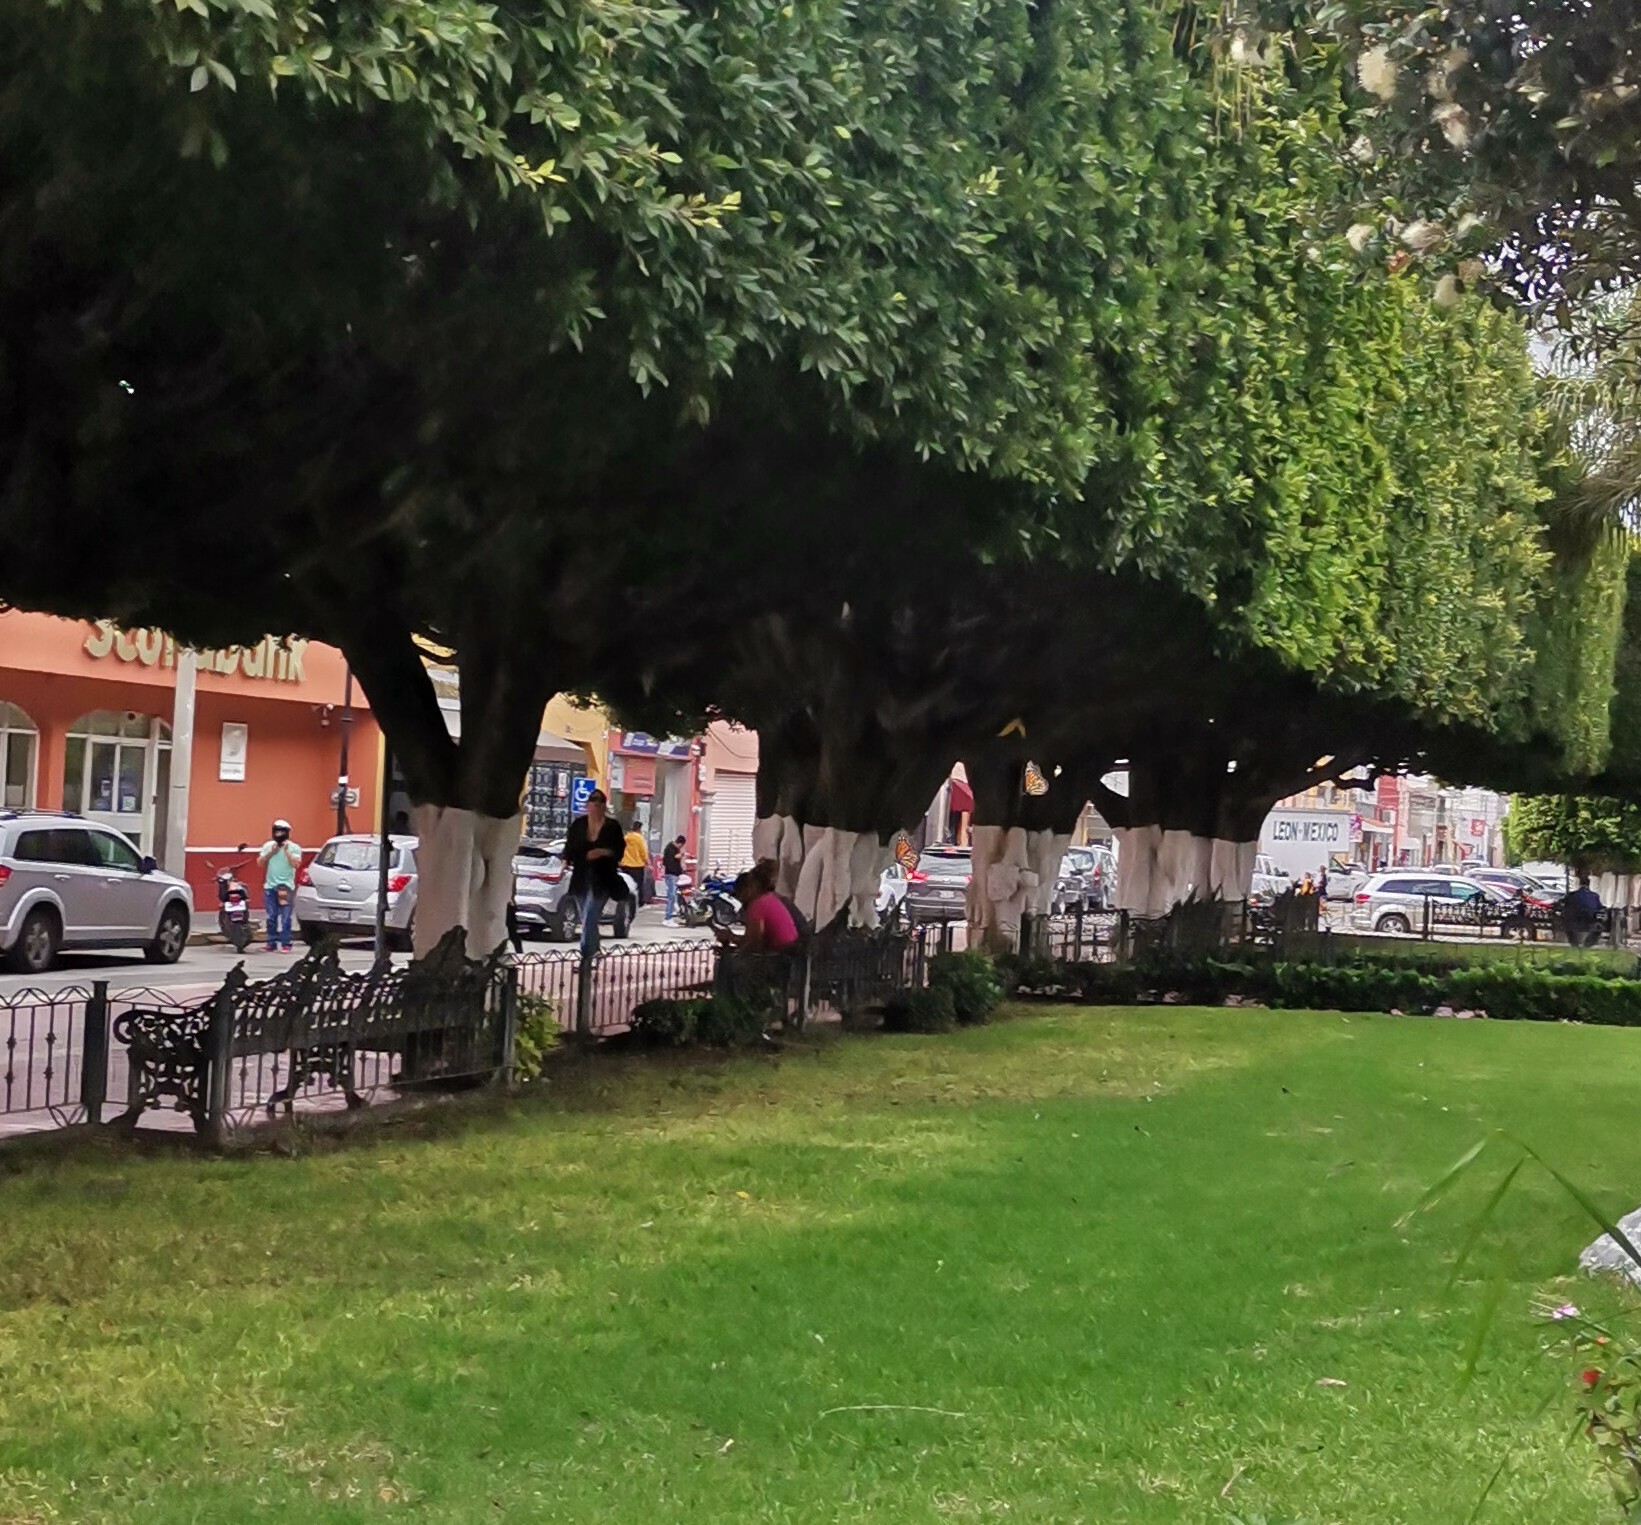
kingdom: Animalia
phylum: Arthropoda
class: Insecta
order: Lepidoptera
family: Nymphalidae
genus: Danaus
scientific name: Danaus plexippus
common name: Monarch
